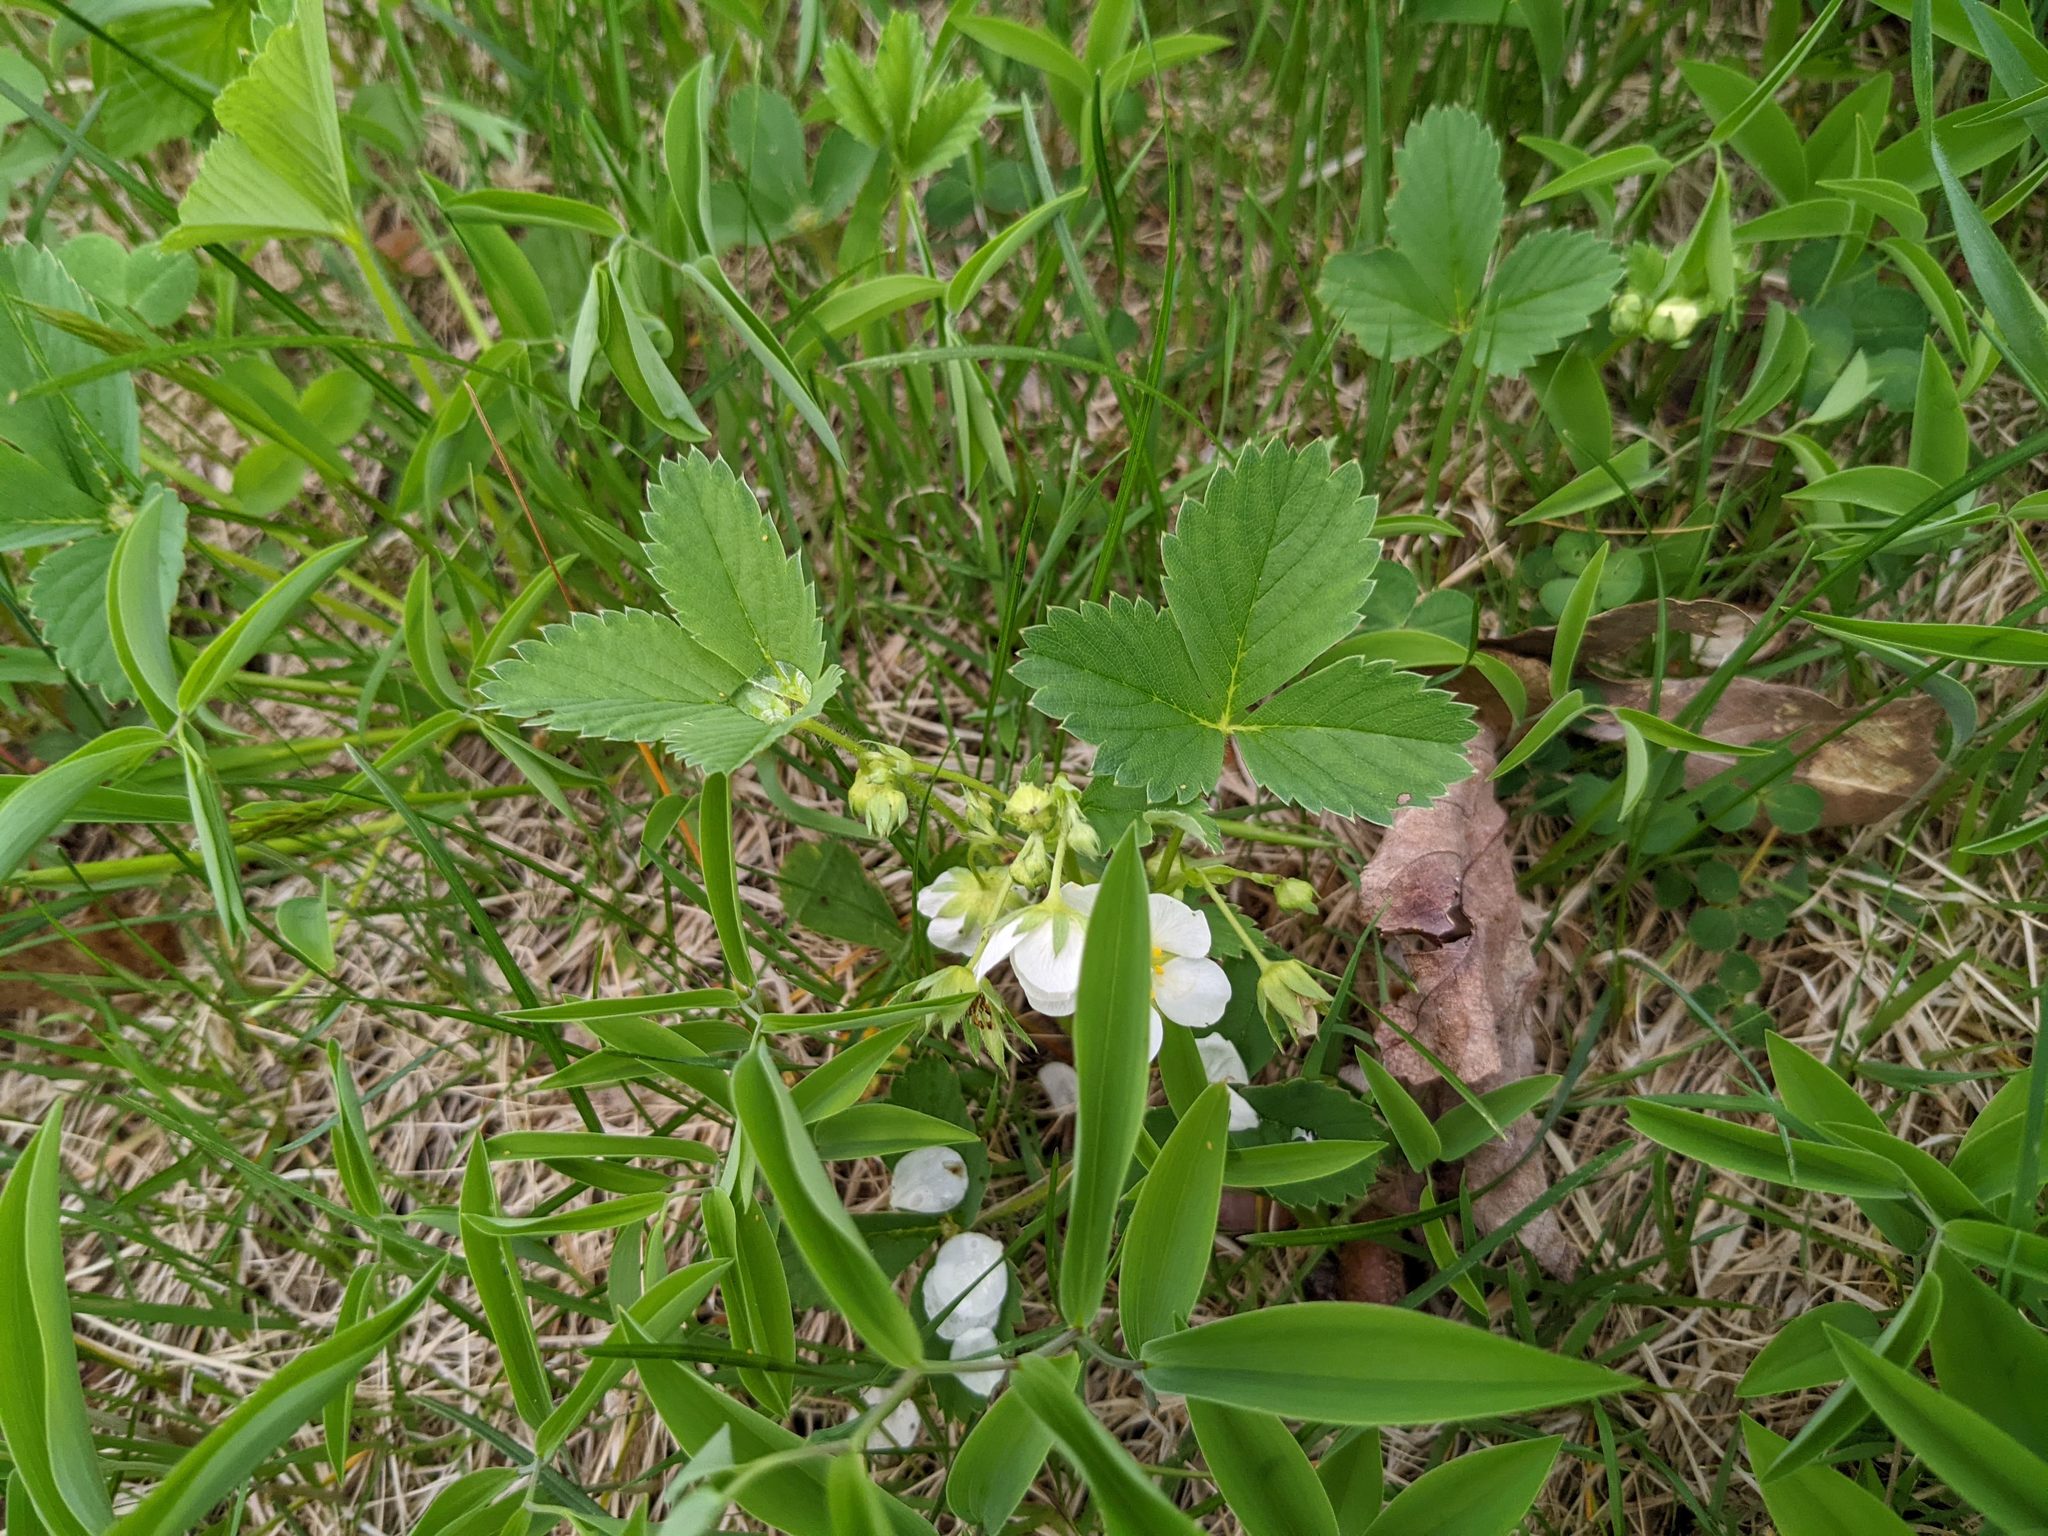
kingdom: Plantae
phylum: Tracheophyta
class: Magnoliopsida
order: Rosales
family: Rosaceae
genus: Fragaria
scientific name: Fragaria virginiana
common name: Thickleaved wild strawberry
